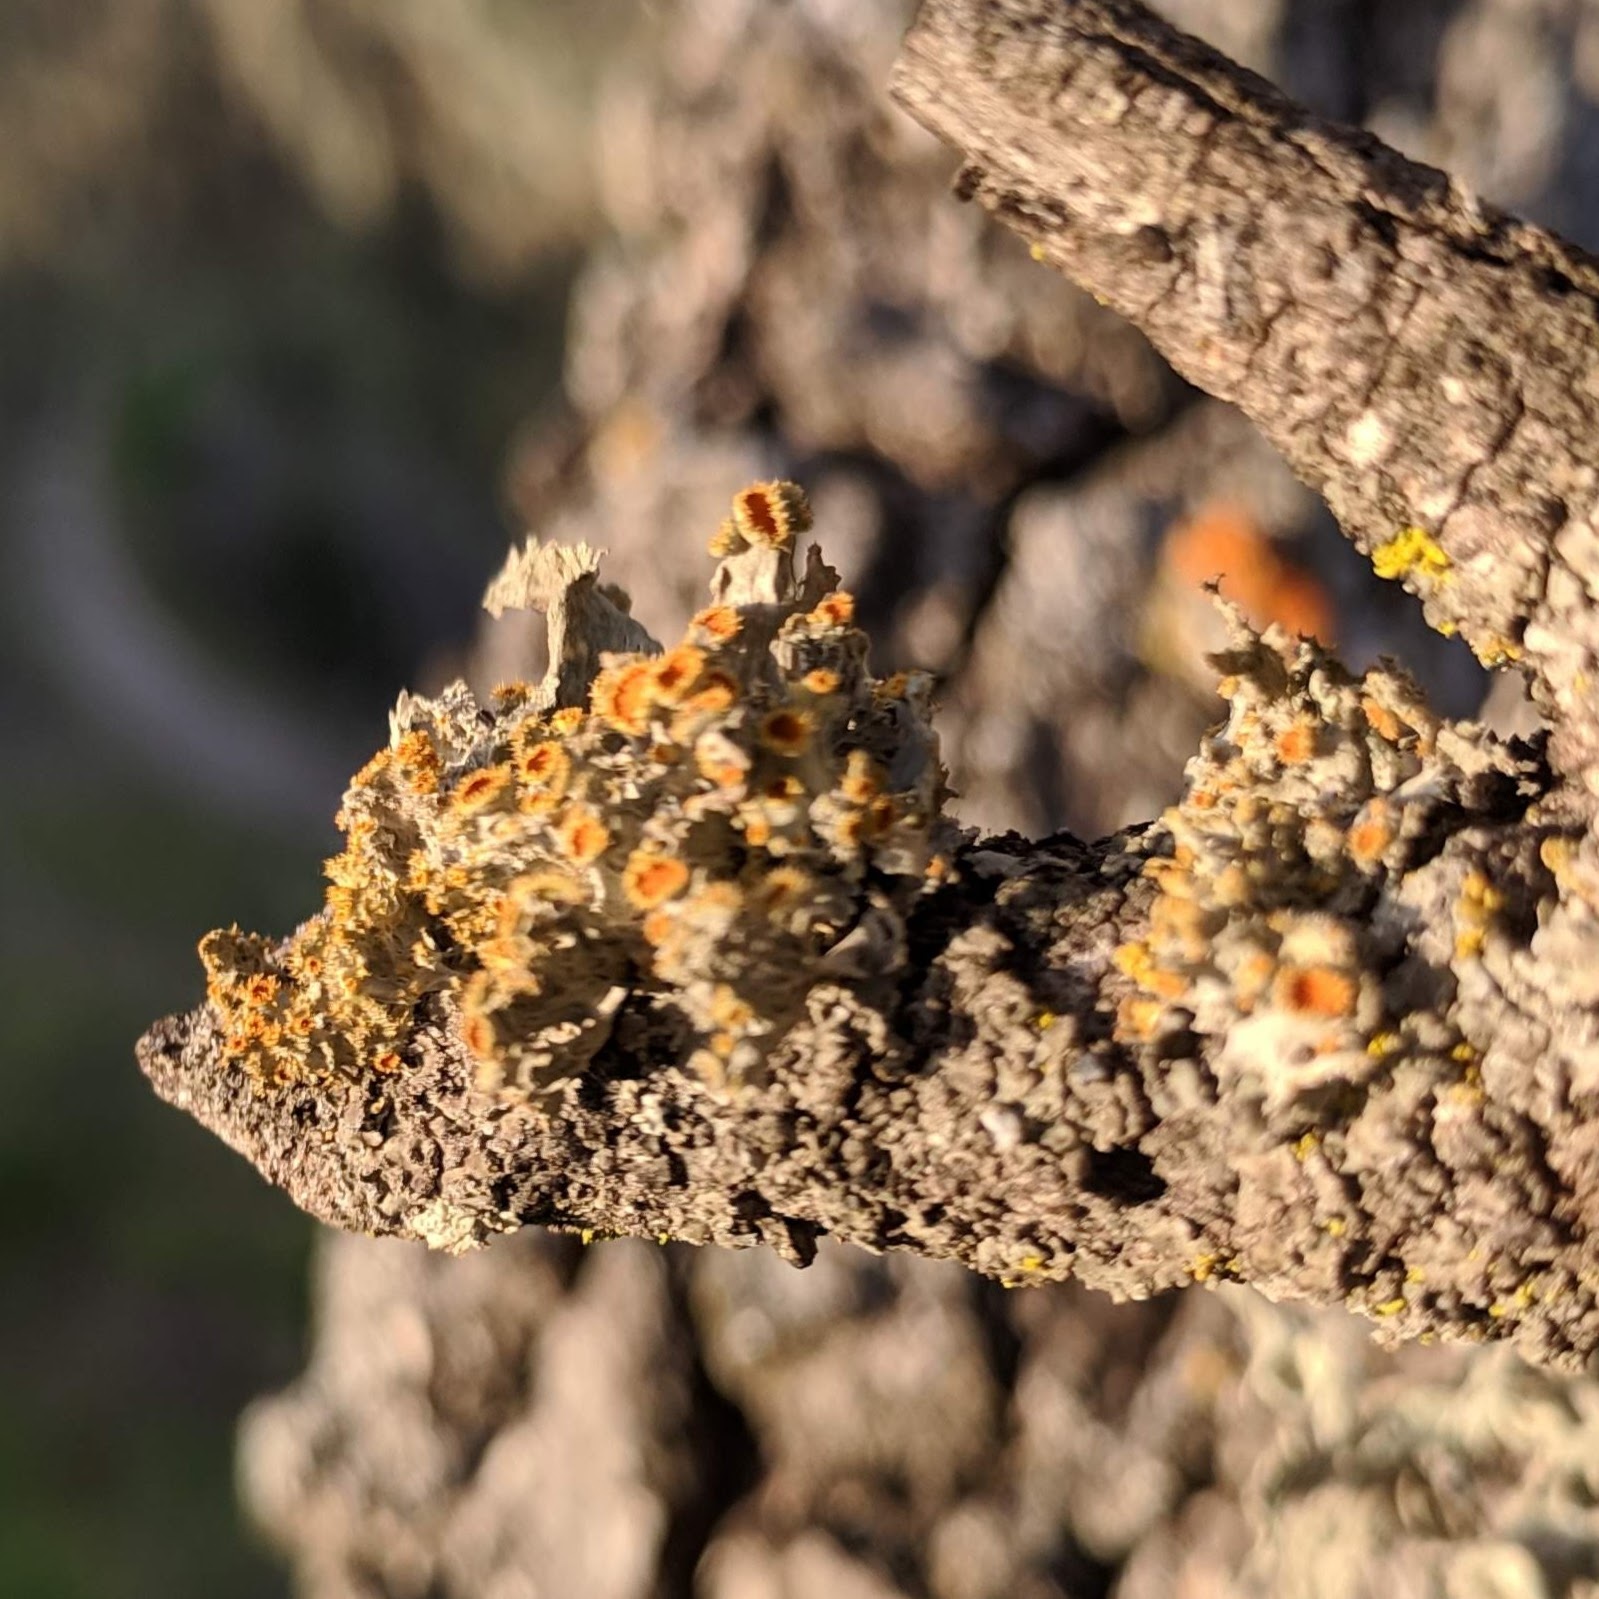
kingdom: Fungi
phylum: Ascomycota
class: Lecanoromycetes
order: Teloschistales
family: Teloschistaceae
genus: Niorma
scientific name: Niorma chrysophthalma
